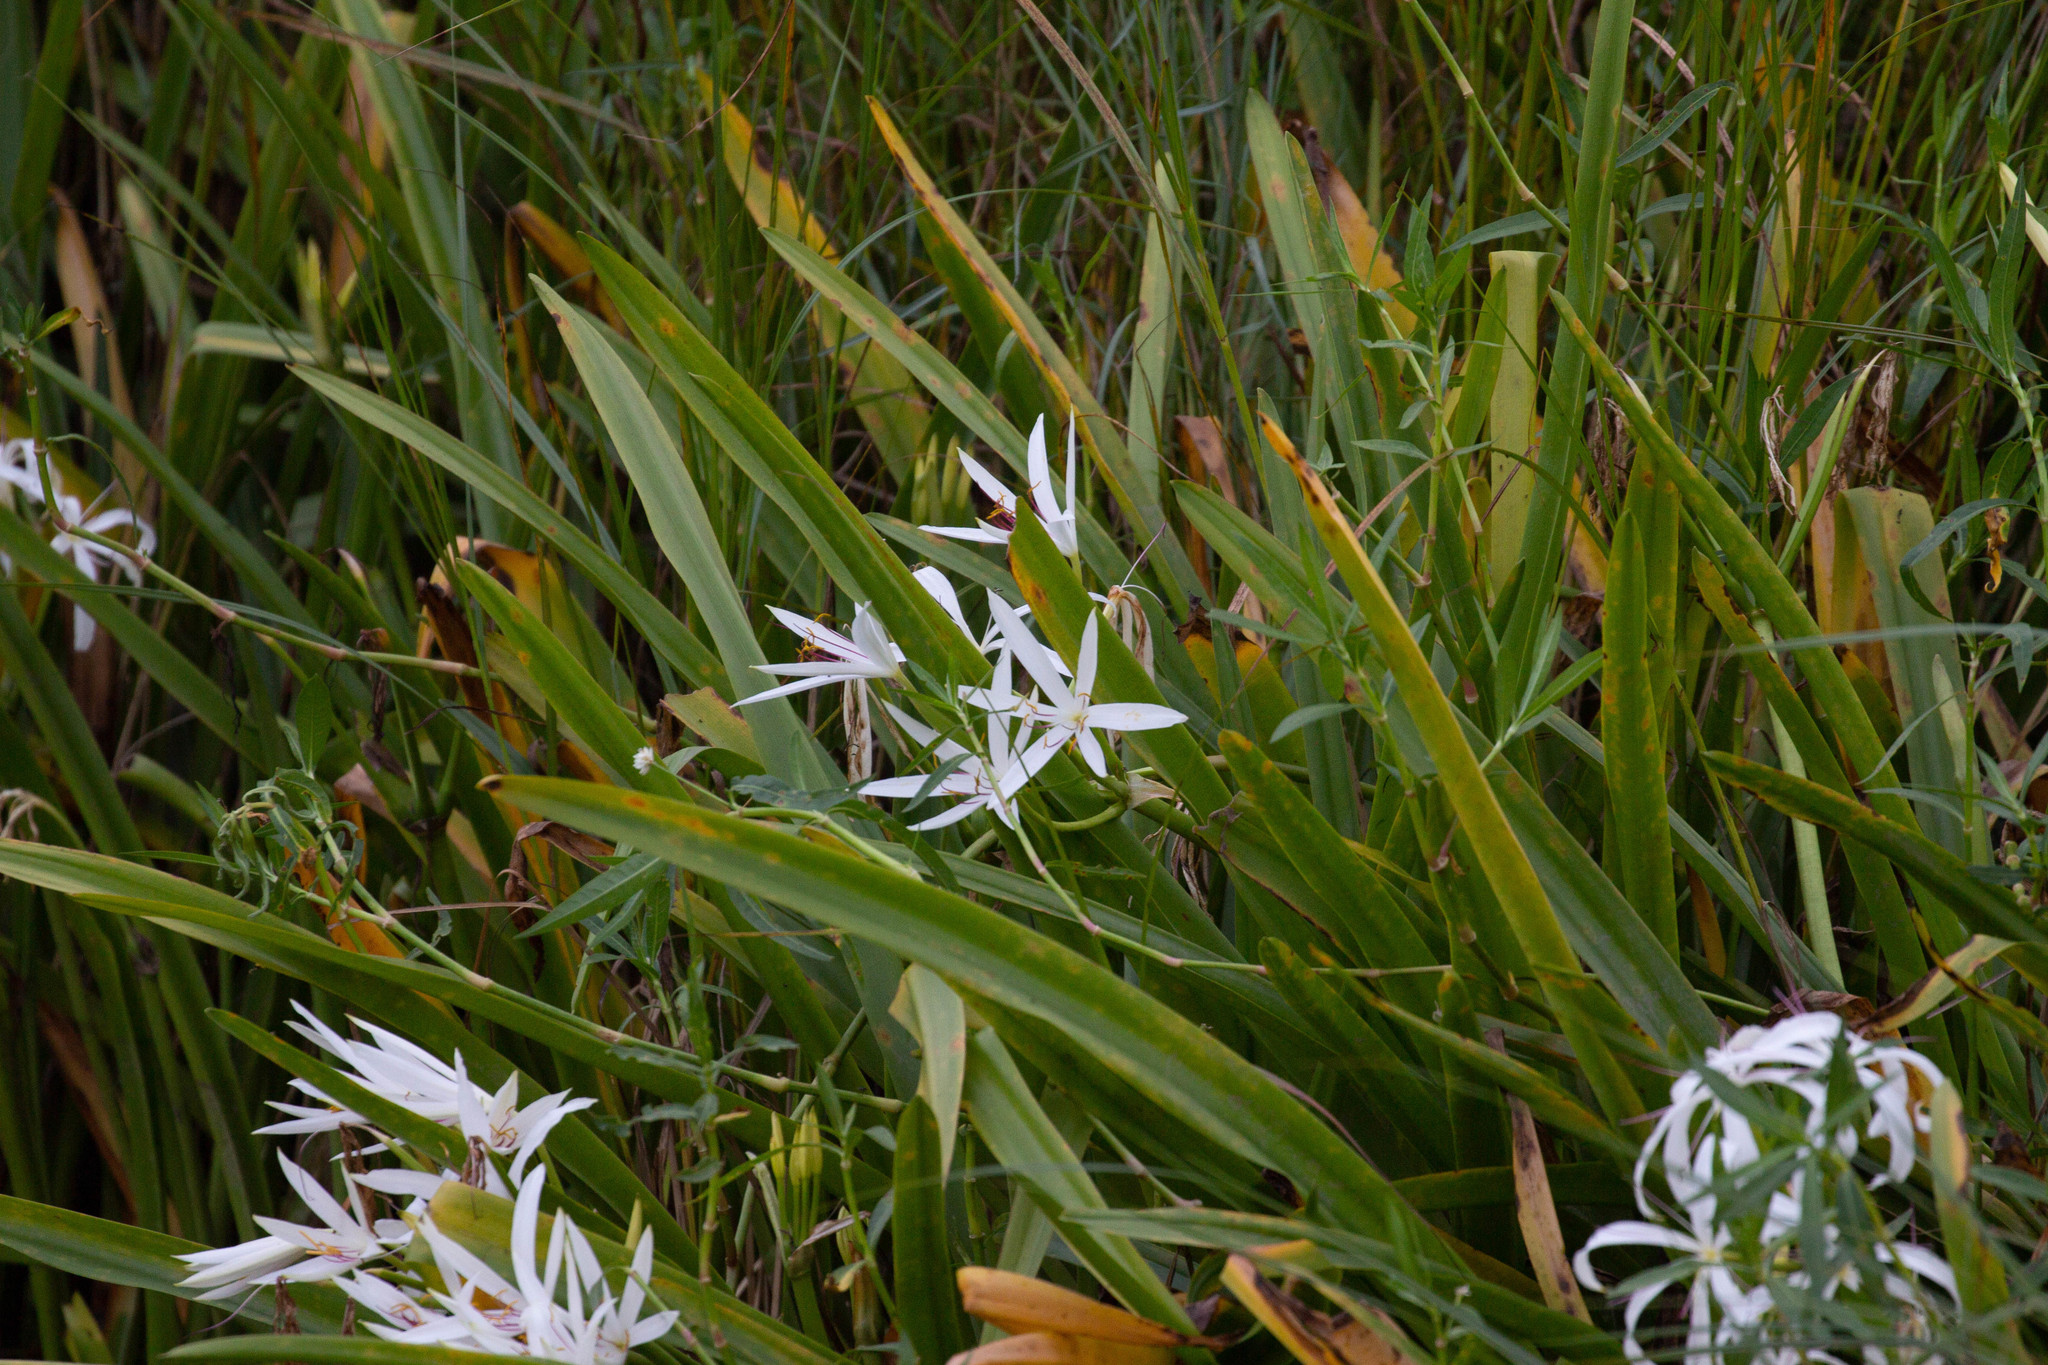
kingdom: Plantae
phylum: Tracheophyta
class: Liliopsida
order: Asparagales
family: Amaryllidaceae
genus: Crinum
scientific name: Crinum americanum
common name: Florida swamp-lily
